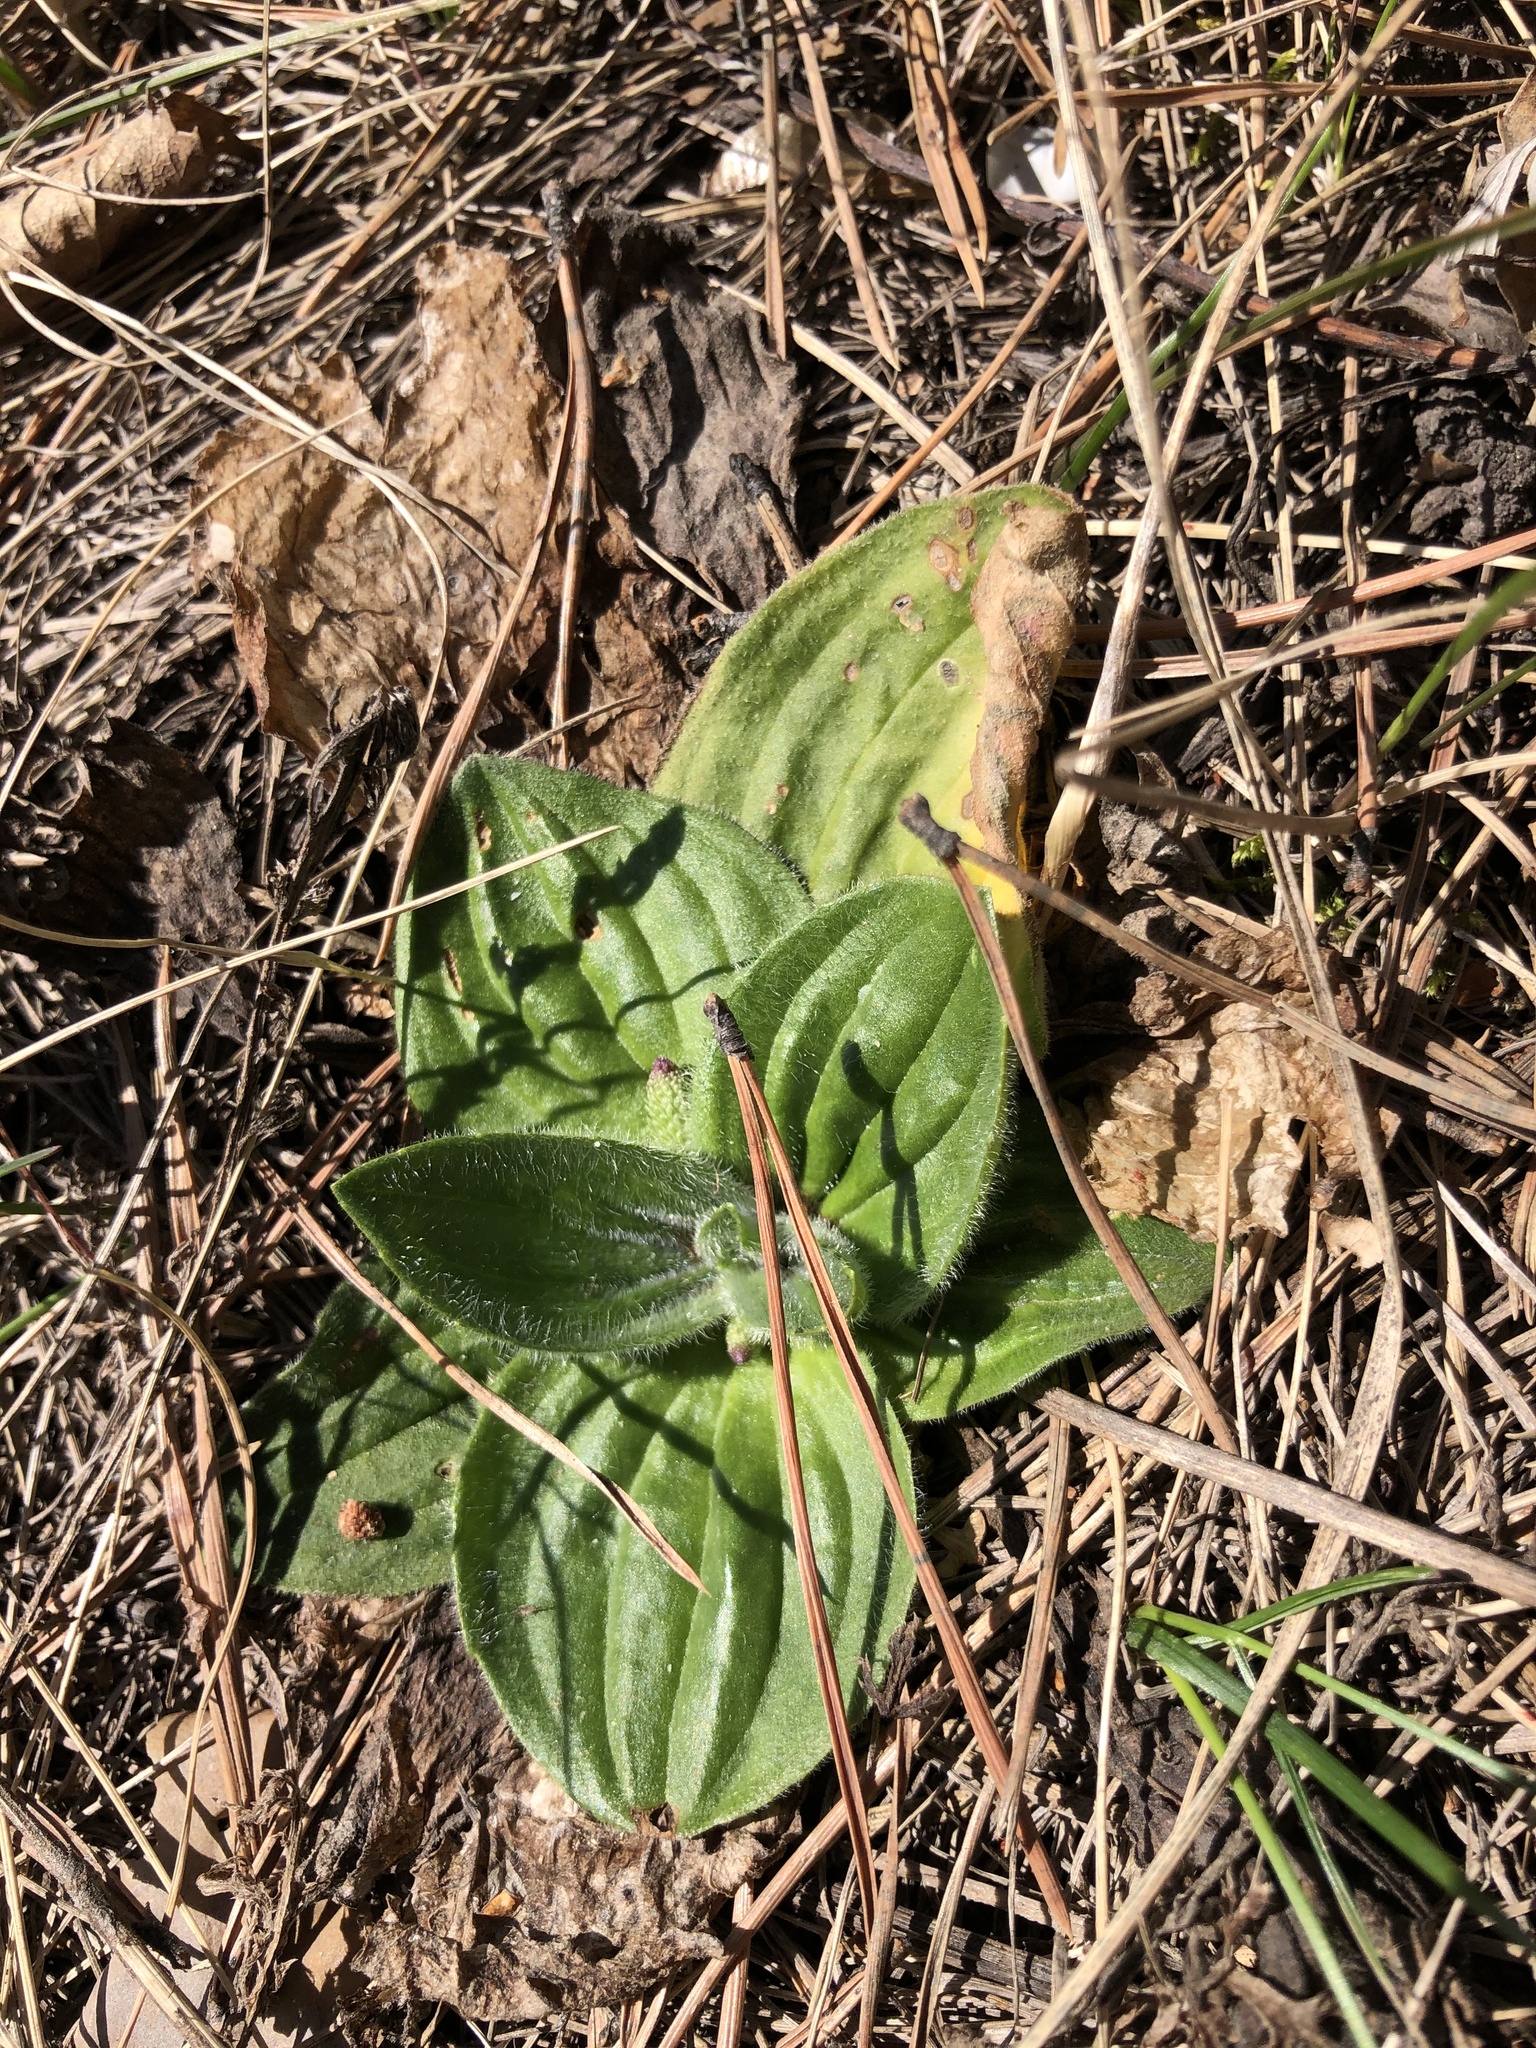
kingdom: Plantae
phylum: Tracheophyta
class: Magnoliopsida
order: Lamiales
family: Plantaginaceae
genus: Plantago
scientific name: Plantago media
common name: Hoary plantain
